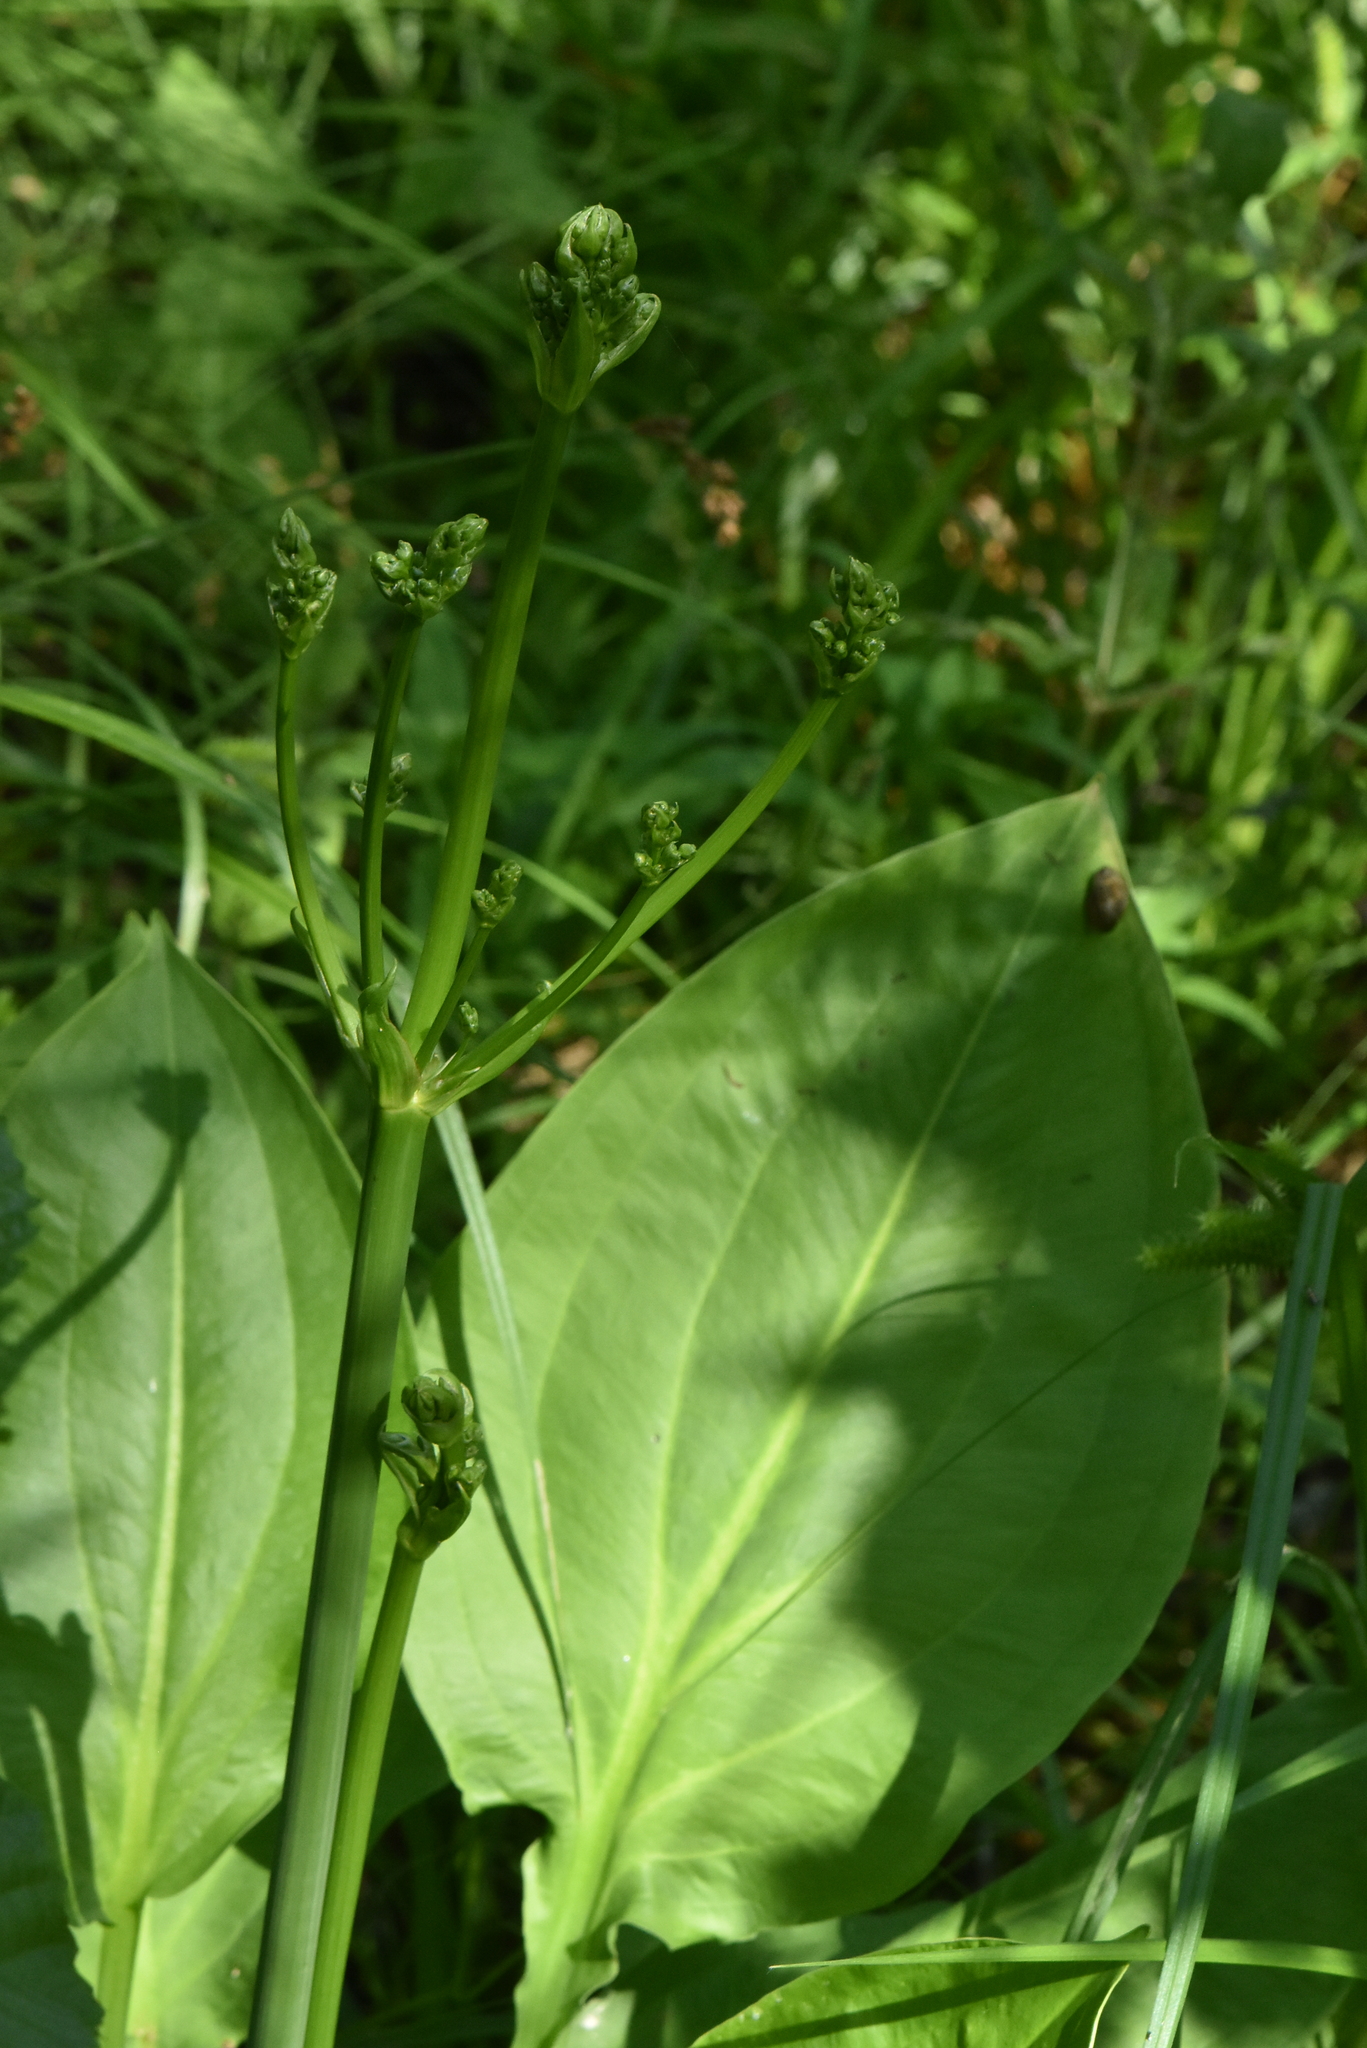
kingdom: Plantae
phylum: Tracheophyta
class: Liliopsida
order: Alismatales
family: Alismataceae
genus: Alisma
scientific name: Alisma plantago-aquatica
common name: Water-plantain
